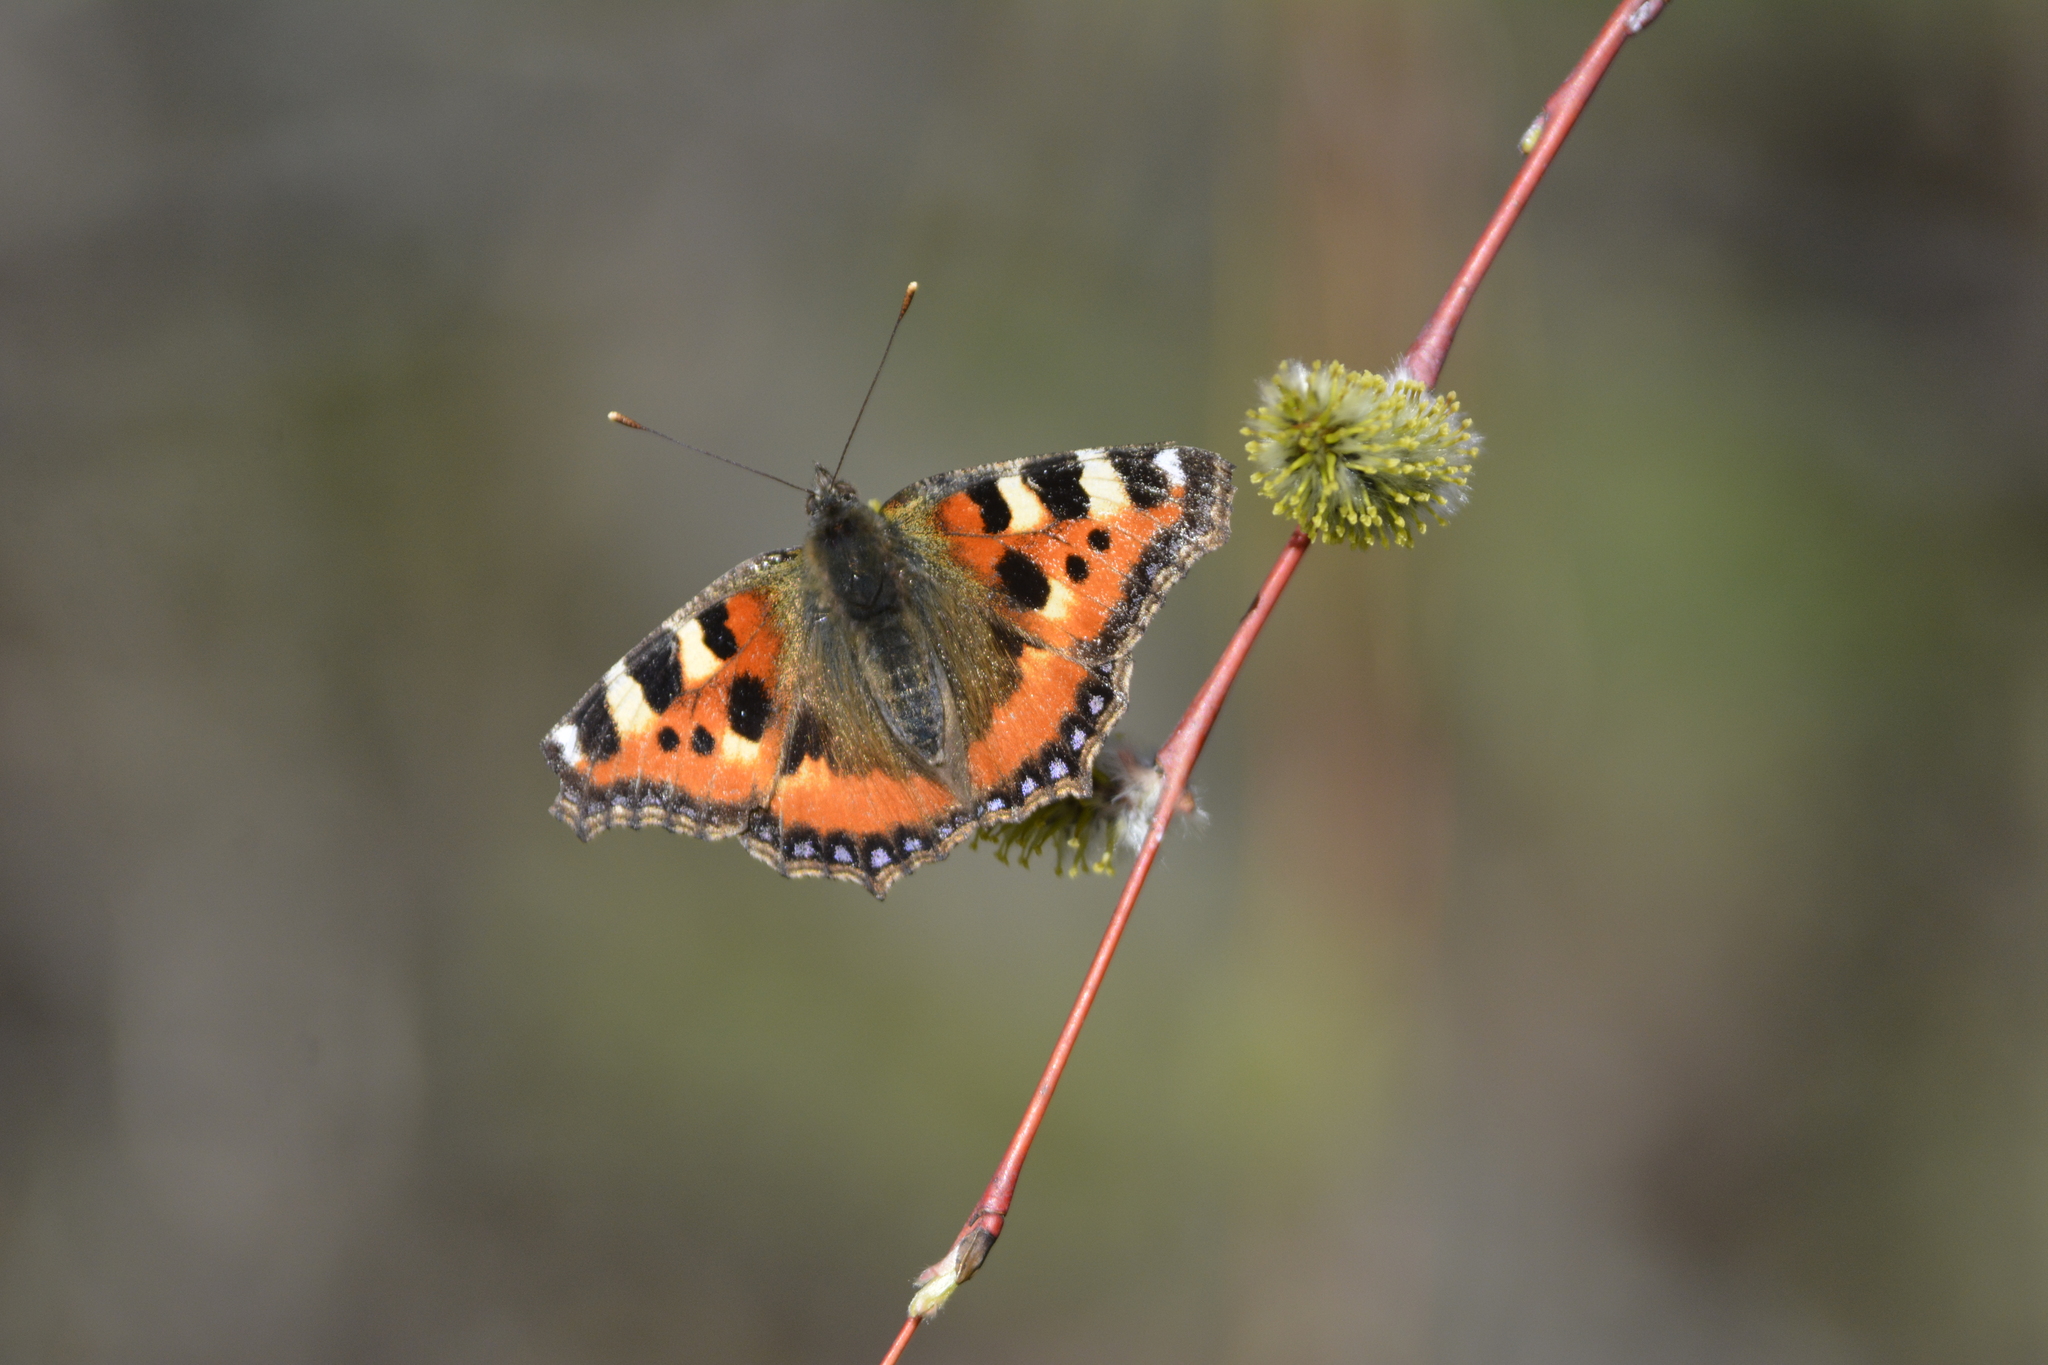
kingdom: Animalia
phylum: Arthropoda
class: Insecta
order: Lepidoptera
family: Nymphalidae
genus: Aglais
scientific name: Aglais urticae
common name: Small tortoiseshell
